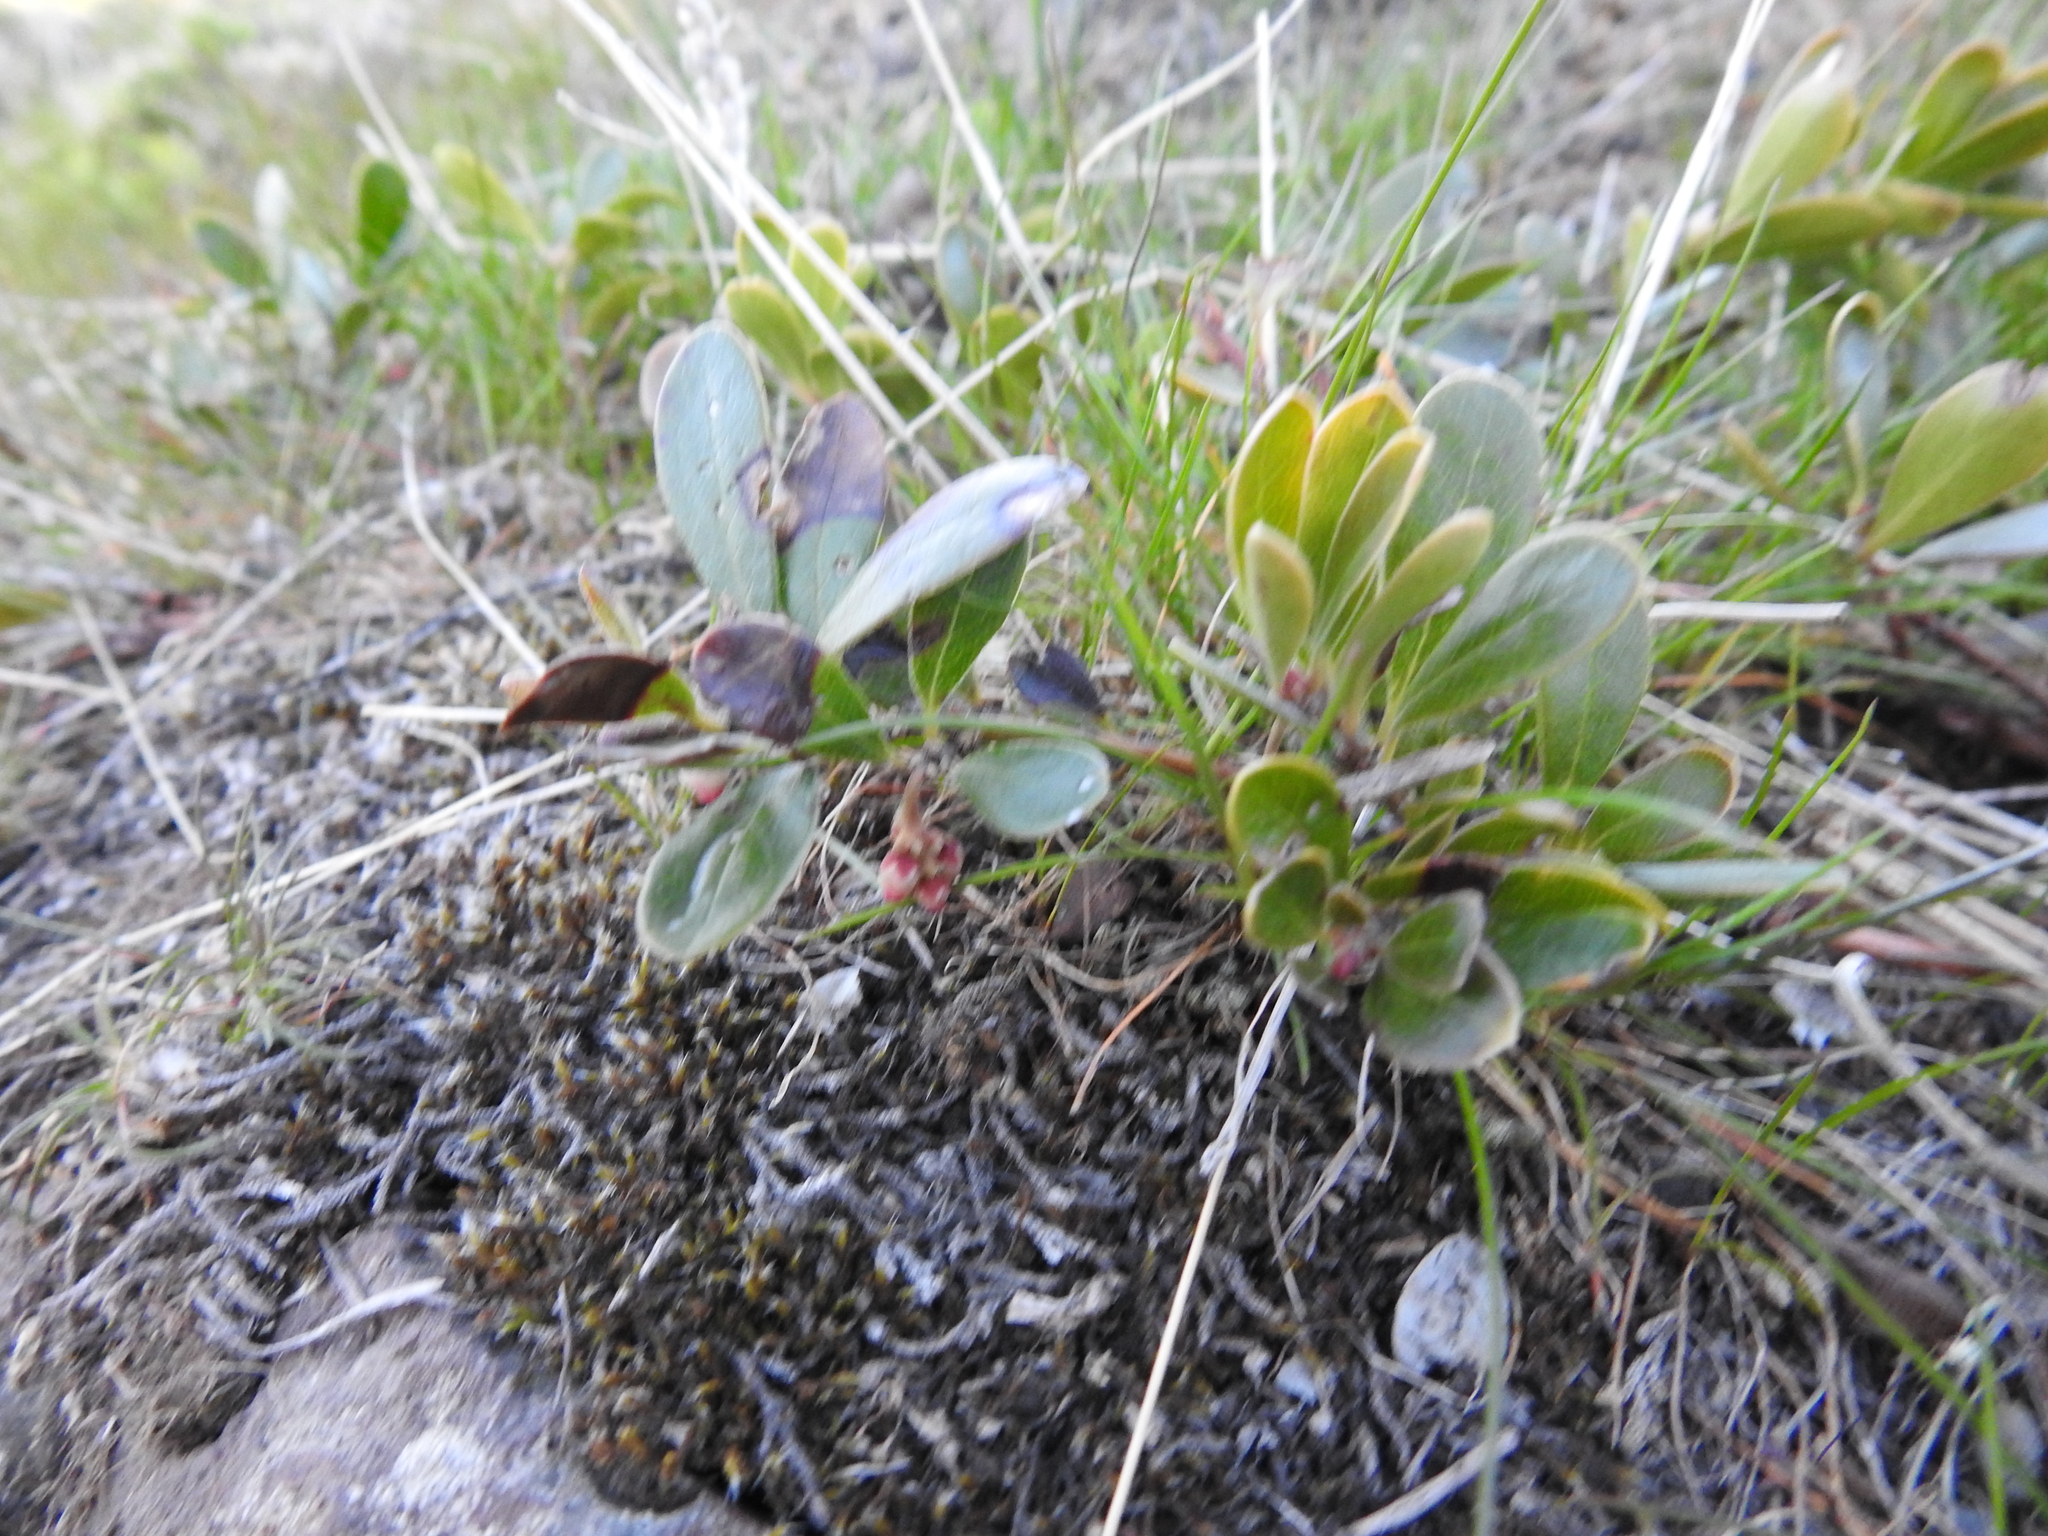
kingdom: Plantae
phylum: Tracheophyta
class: Magnoliopsida
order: Ericales
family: Ericaceae
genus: Arctostaphylos
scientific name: Arctostaphylos uva-ursi
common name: Bearberry
